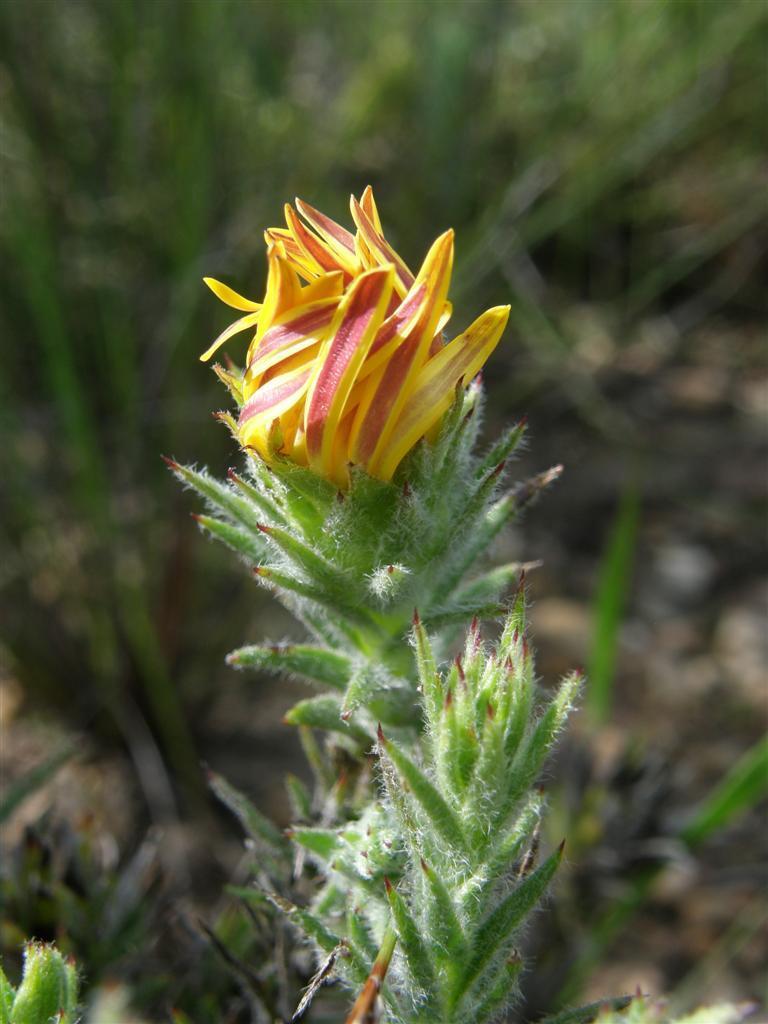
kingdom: Plantae
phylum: Tracheophyta
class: Magnoliopsida
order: Asterales
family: Asteraceae
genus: Oedera
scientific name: Oedera capensis
